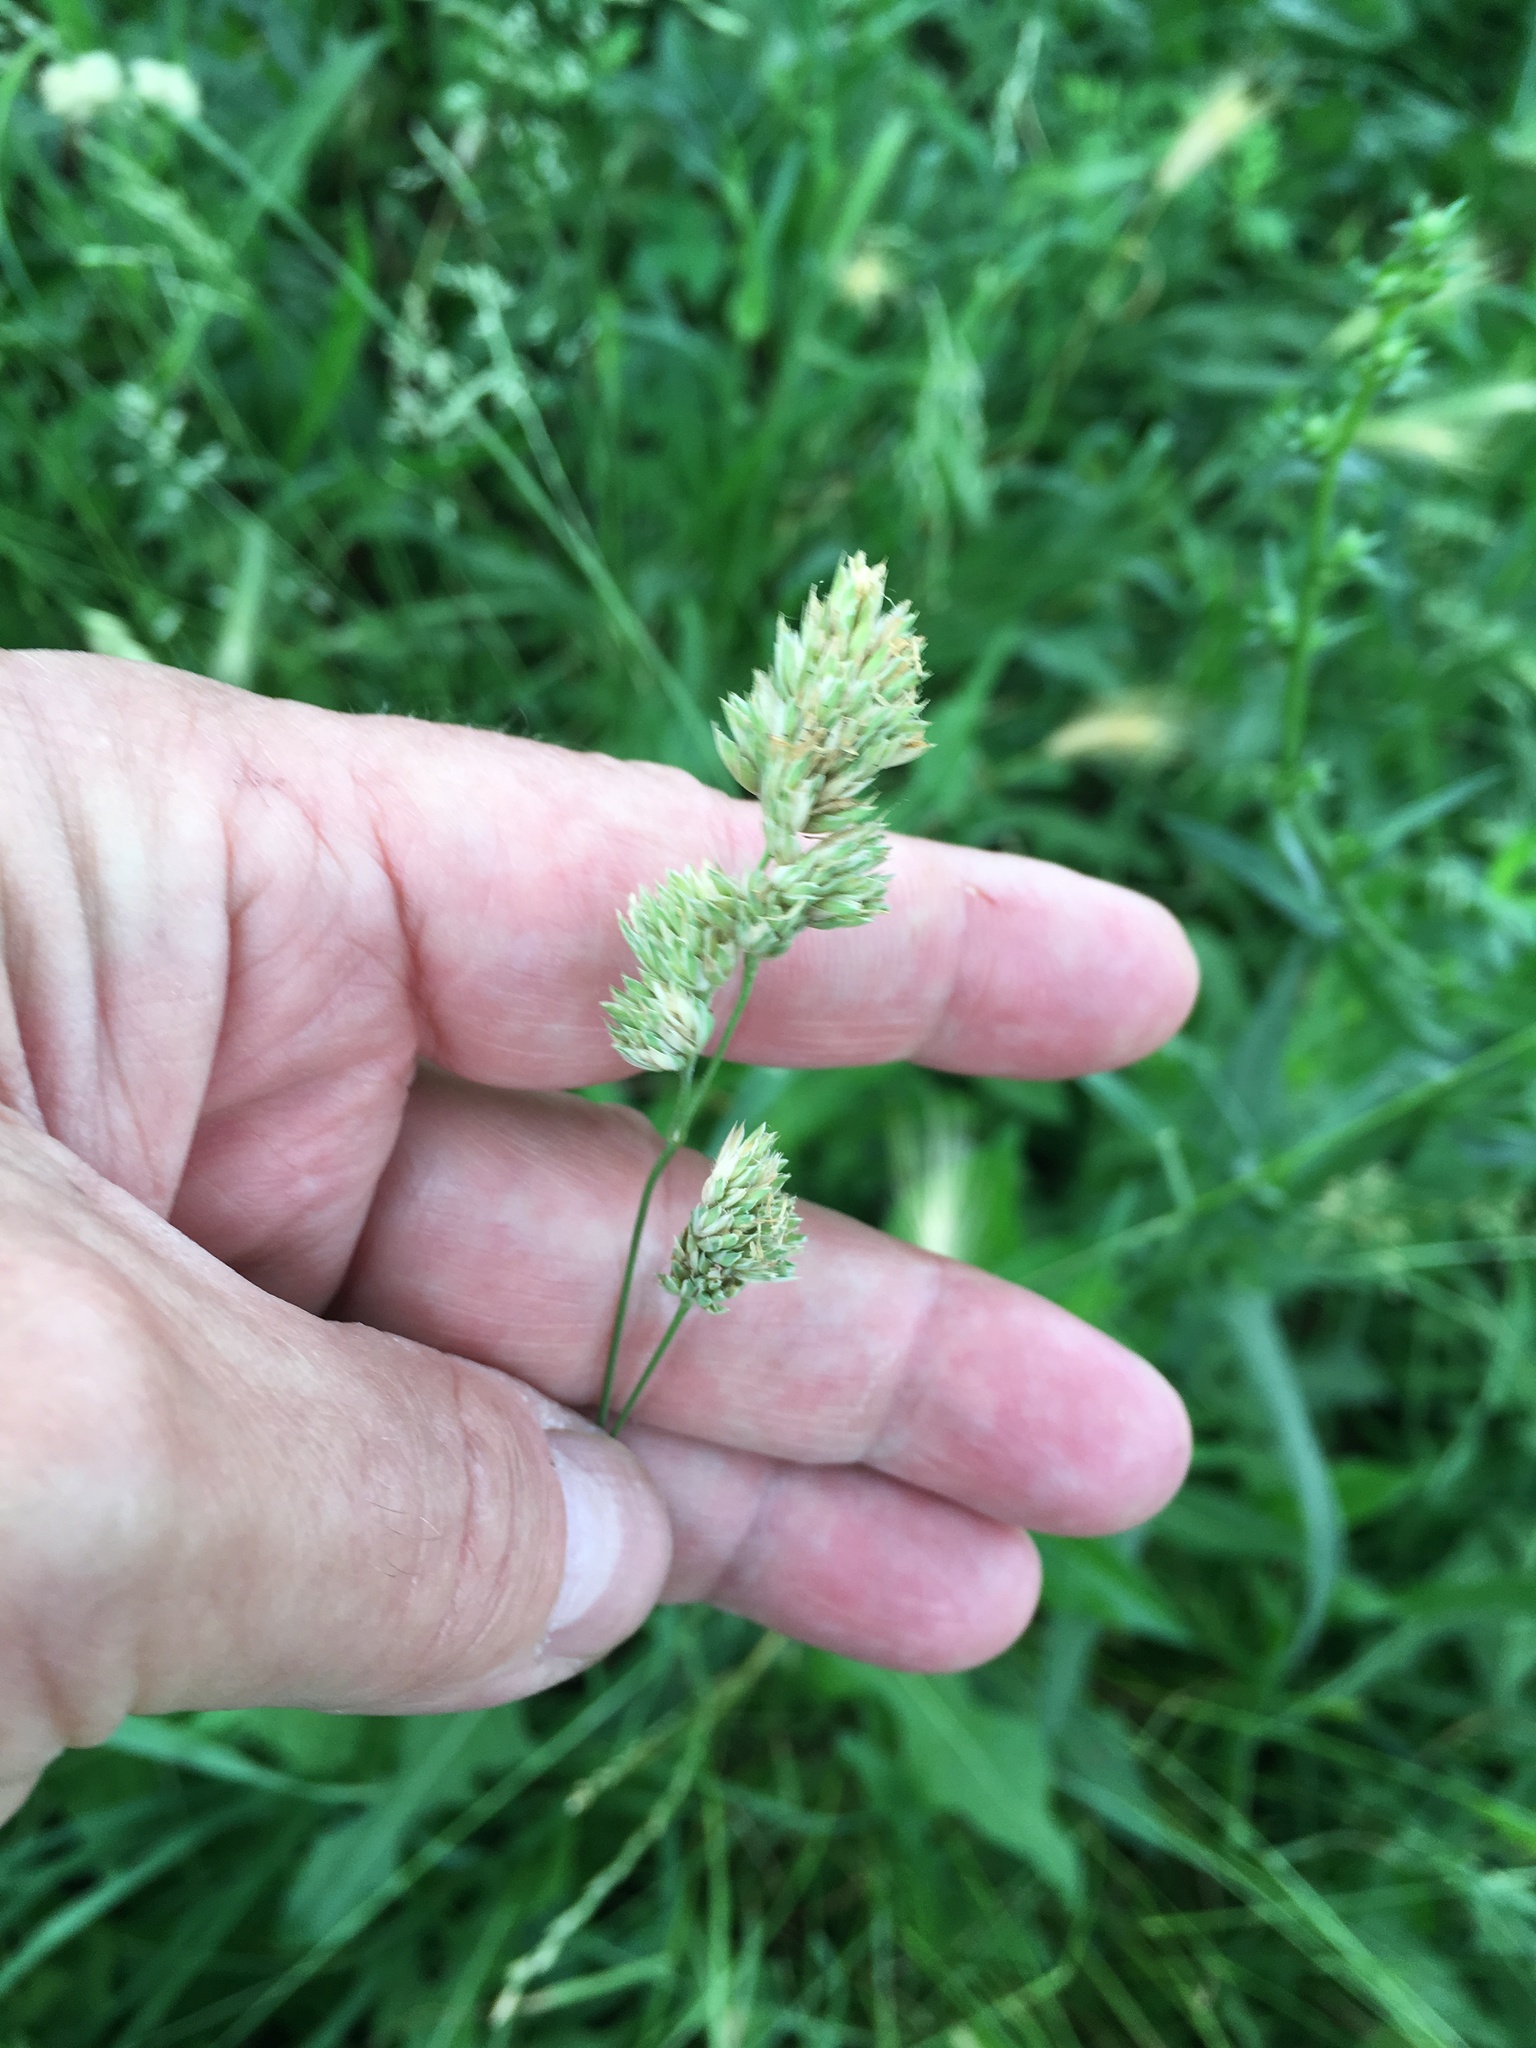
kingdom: Plantae
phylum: Tracheophyta
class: Liliopsida
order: Poales
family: Poaceae
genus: Dactylis
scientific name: Dactylis glomerata
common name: Orchardgrass
